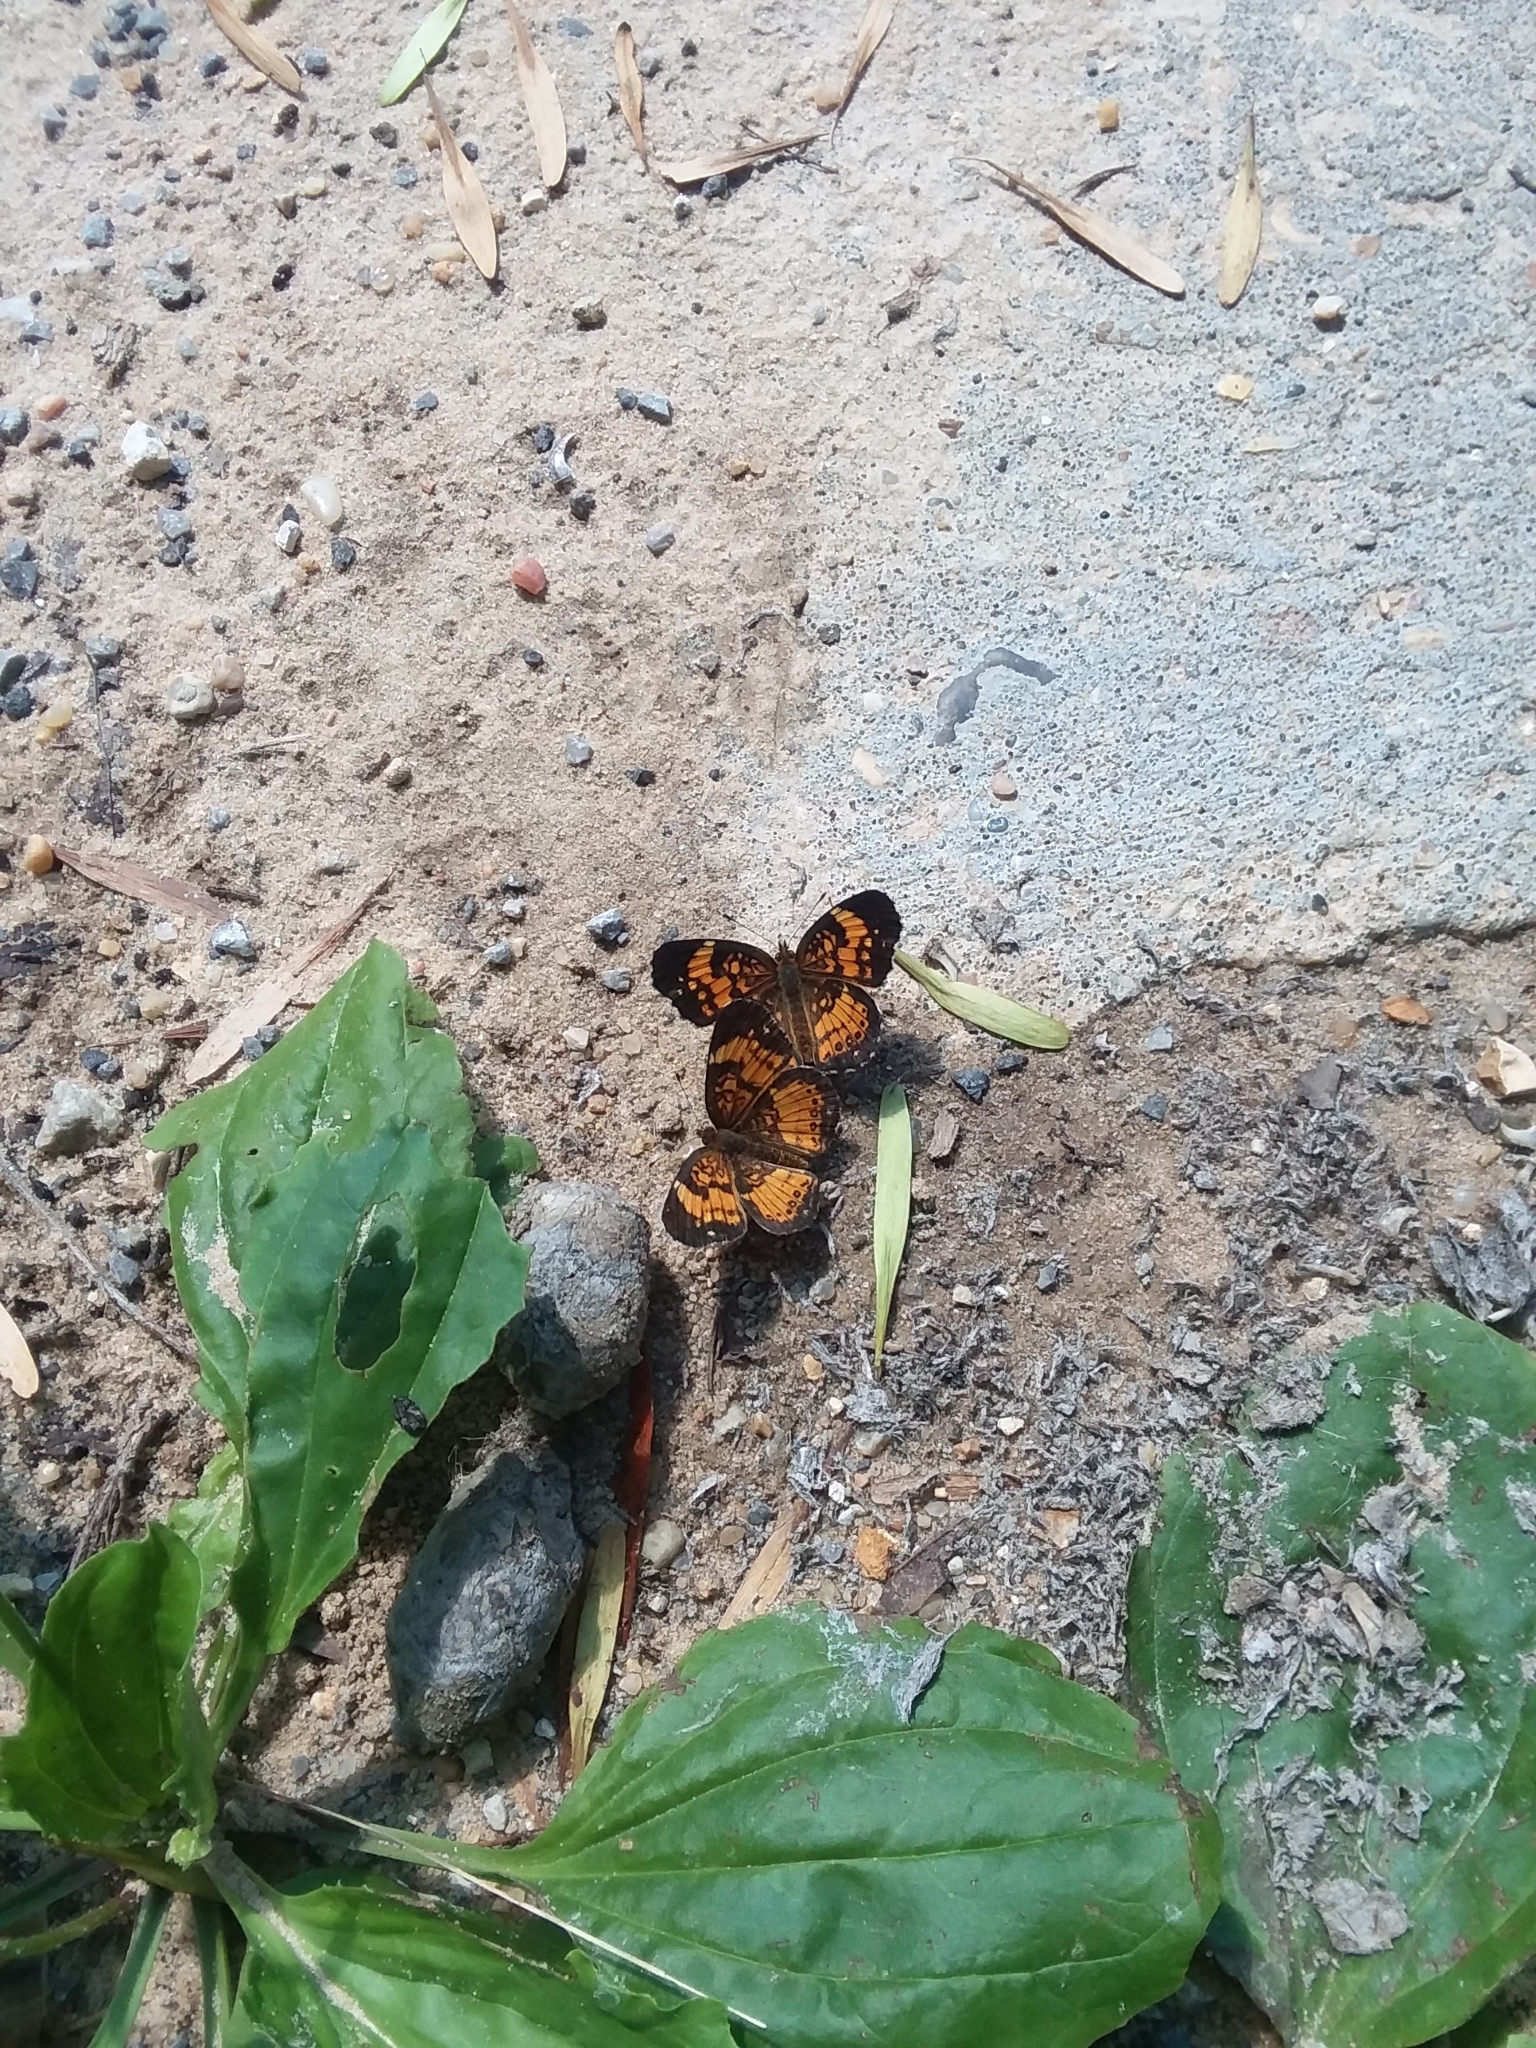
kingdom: Animalia
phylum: Arthropoda
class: Insecta
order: Lepidoptera
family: Nymphalidae
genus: Chlosyne
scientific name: Chlosyne nycteis
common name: Silvery checkerspot
